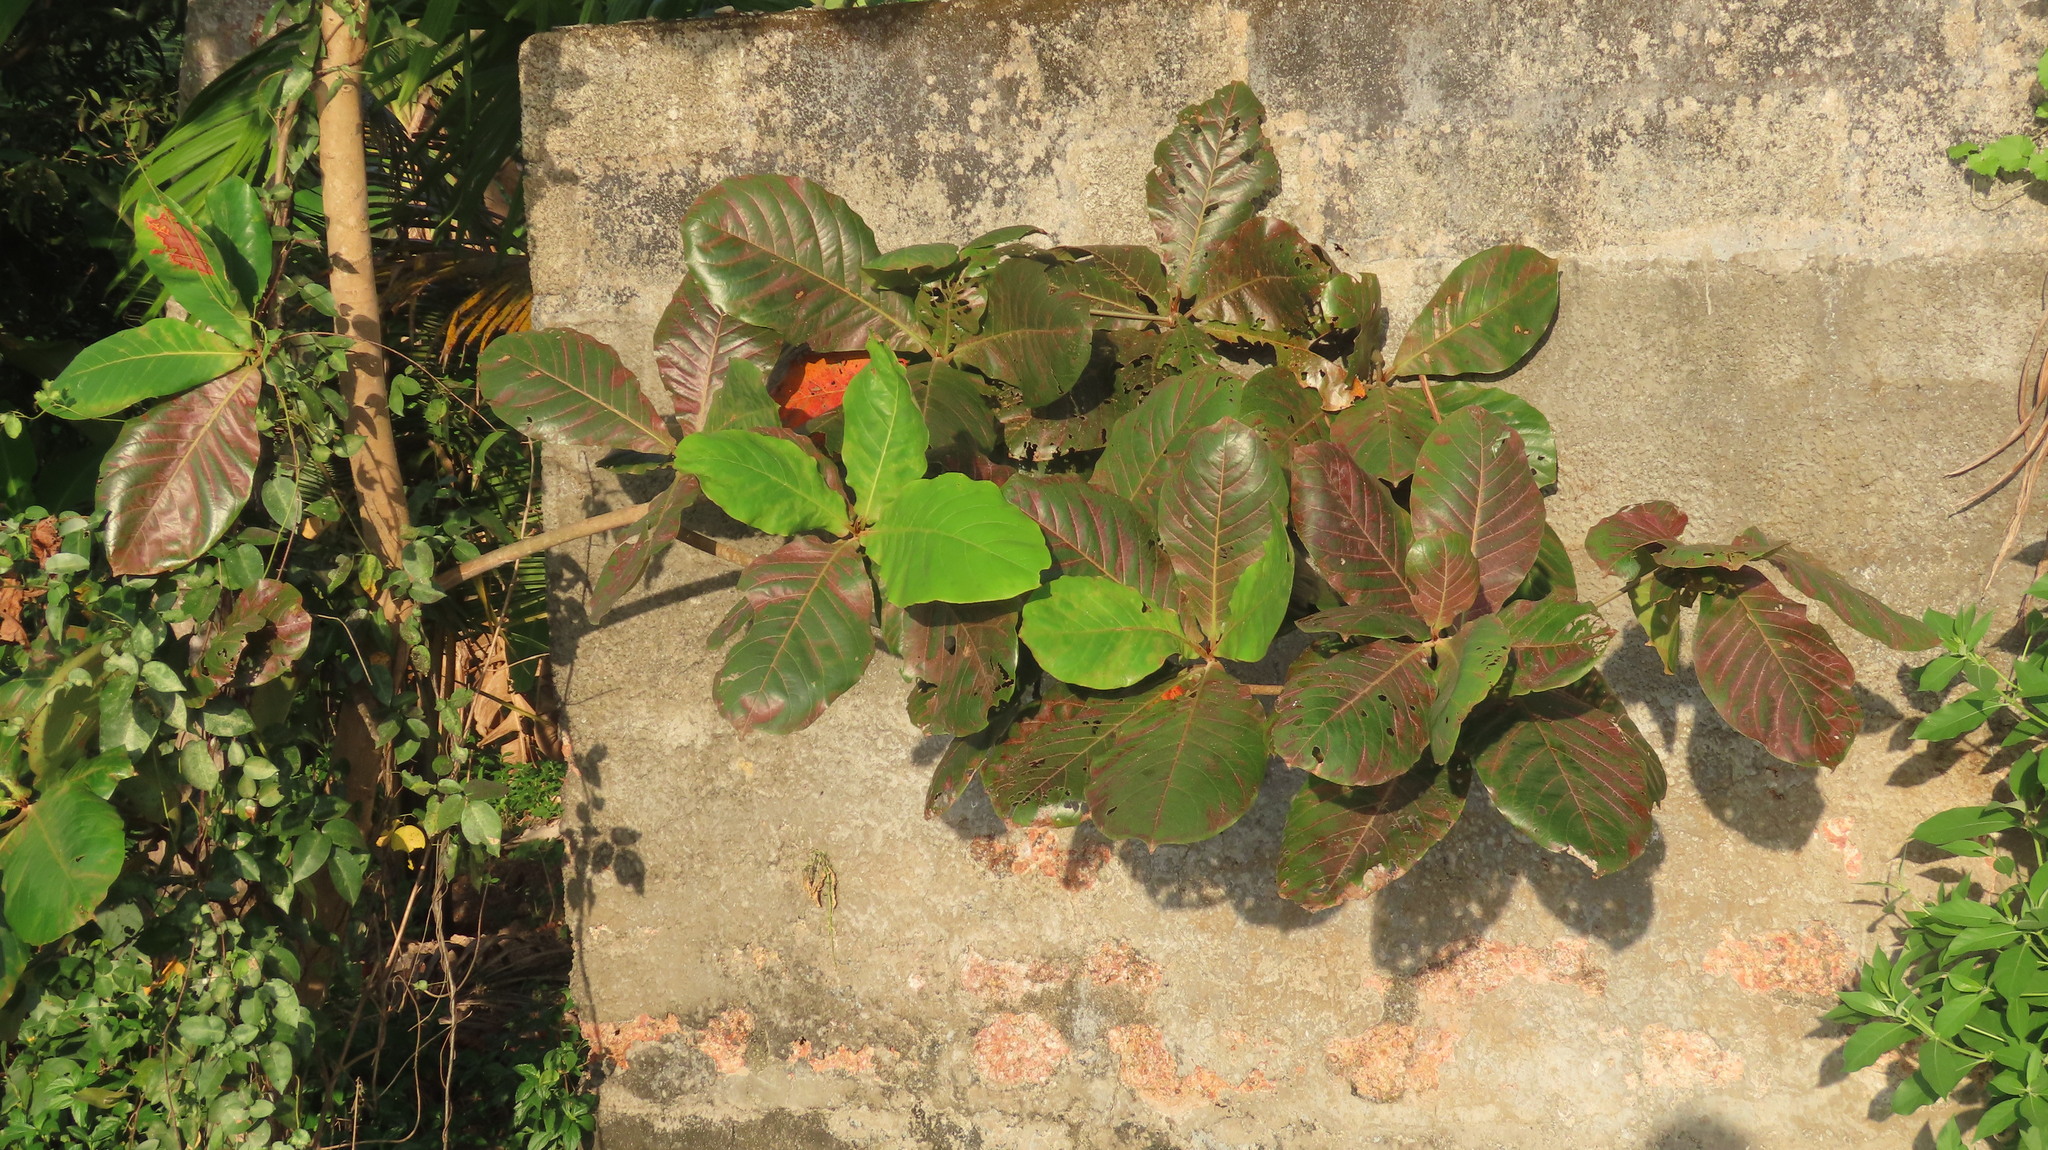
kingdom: Plantae
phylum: Tracheophyta
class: Magnoliopsida
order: Myrtales
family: Combretaceae
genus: Terminalia
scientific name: Terminalia catappa
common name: Tropical almond
